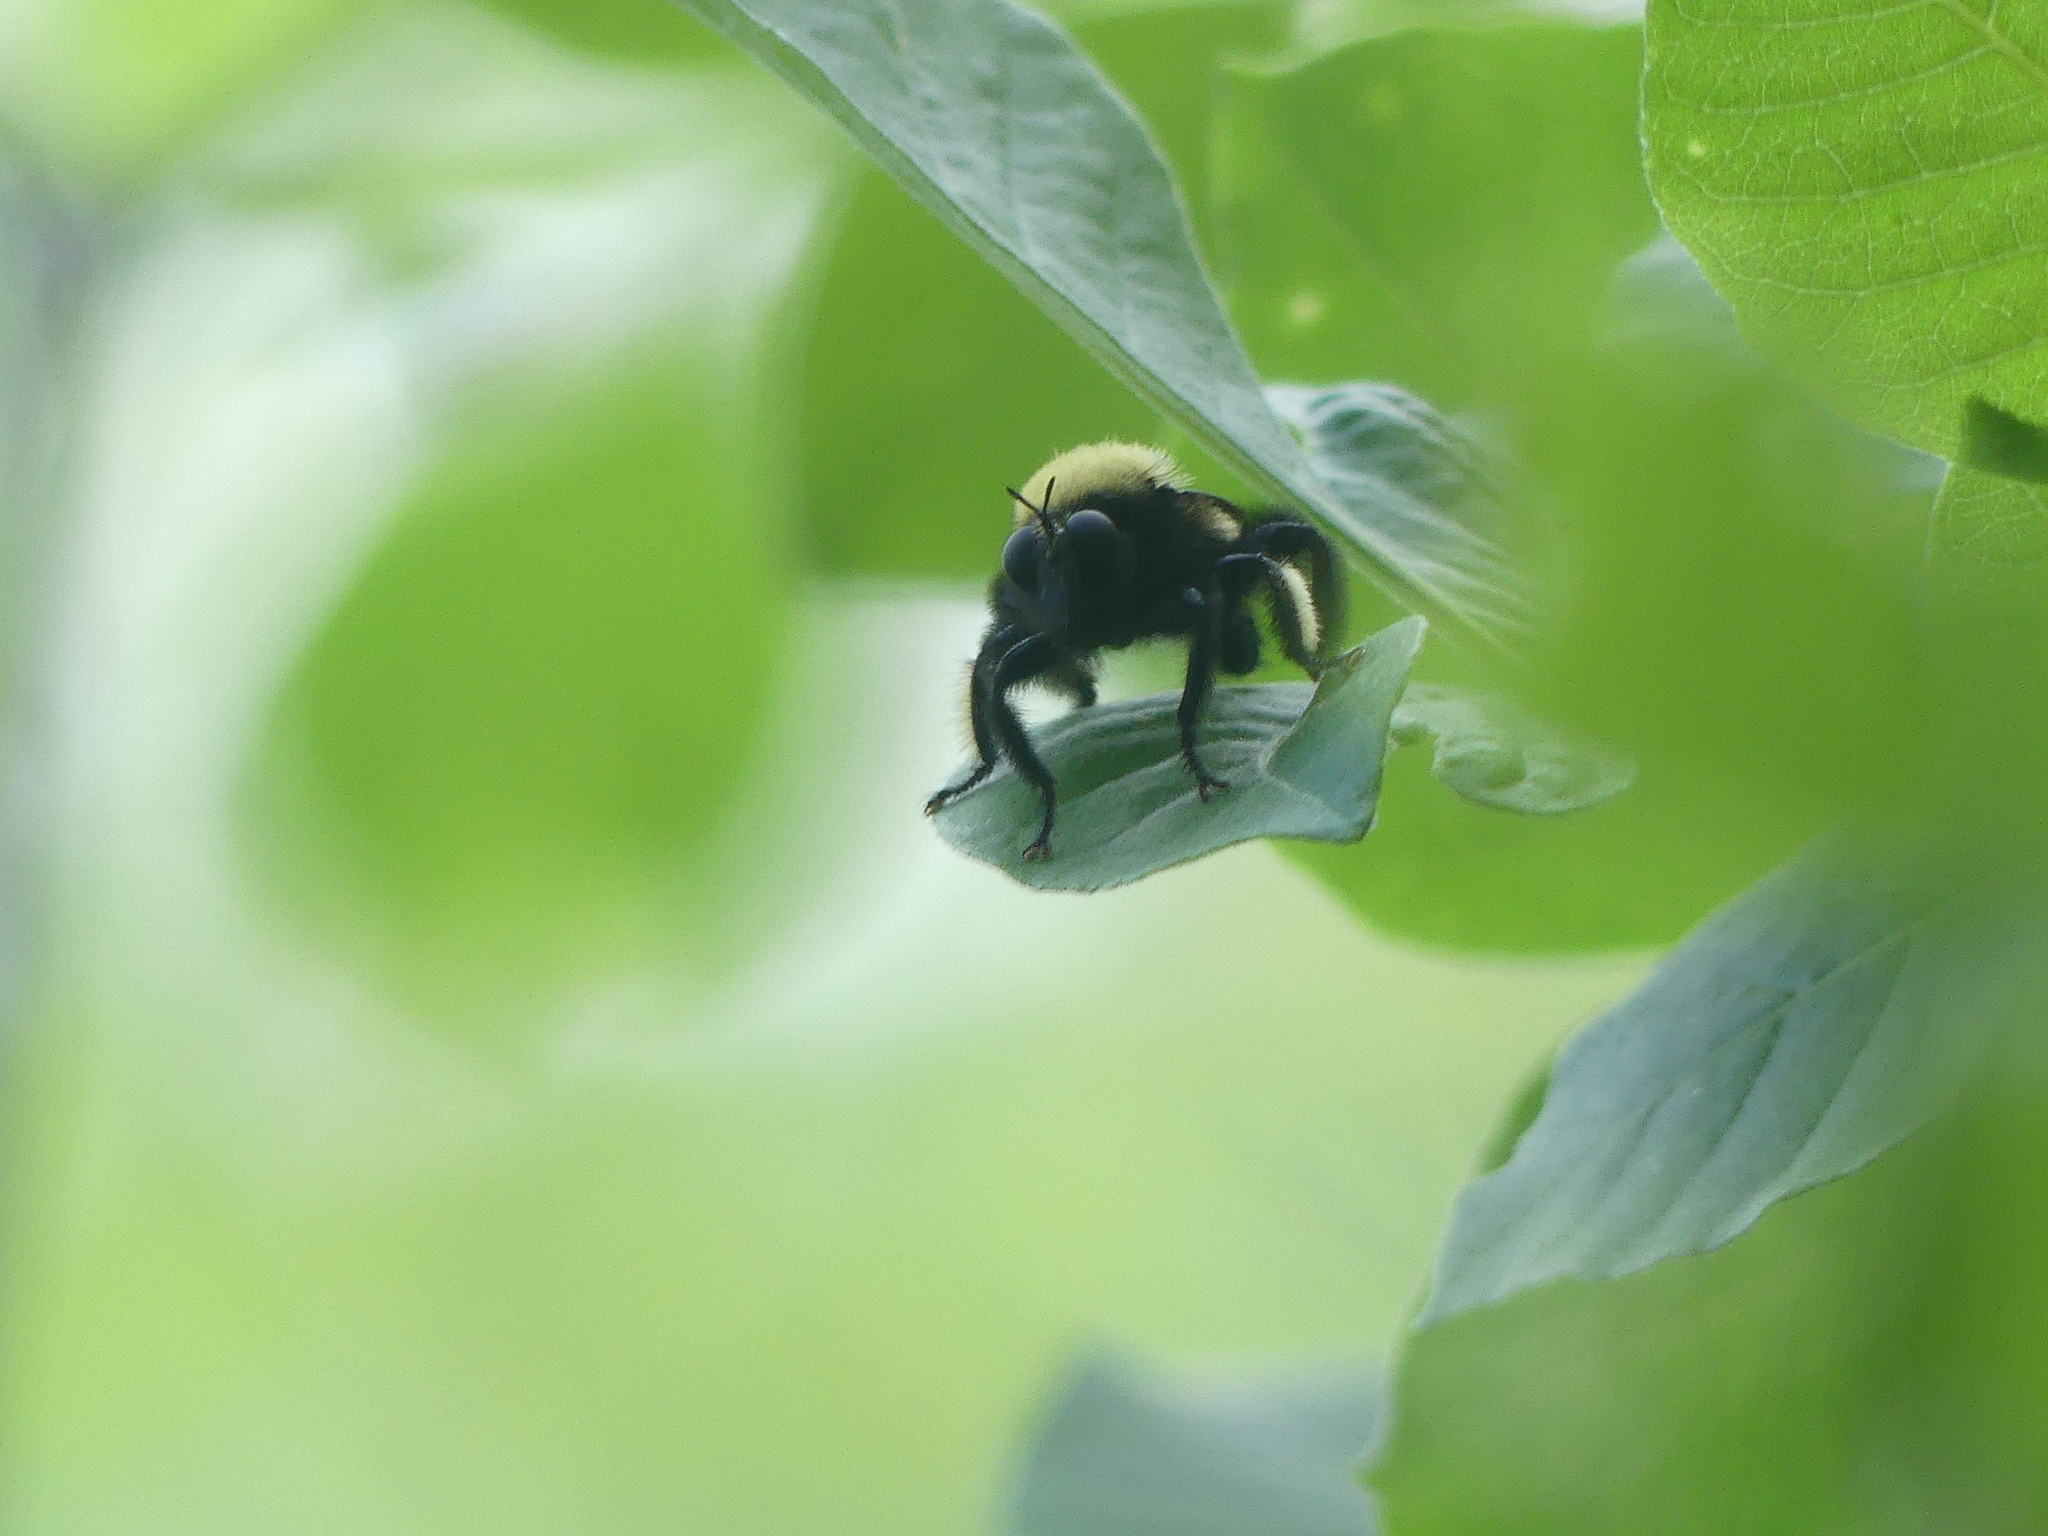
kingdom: Animalia
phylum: Arthropoda
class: Insecta
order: Diptera
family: Asilidae
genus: Laphria
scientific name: Laphria macquarti
